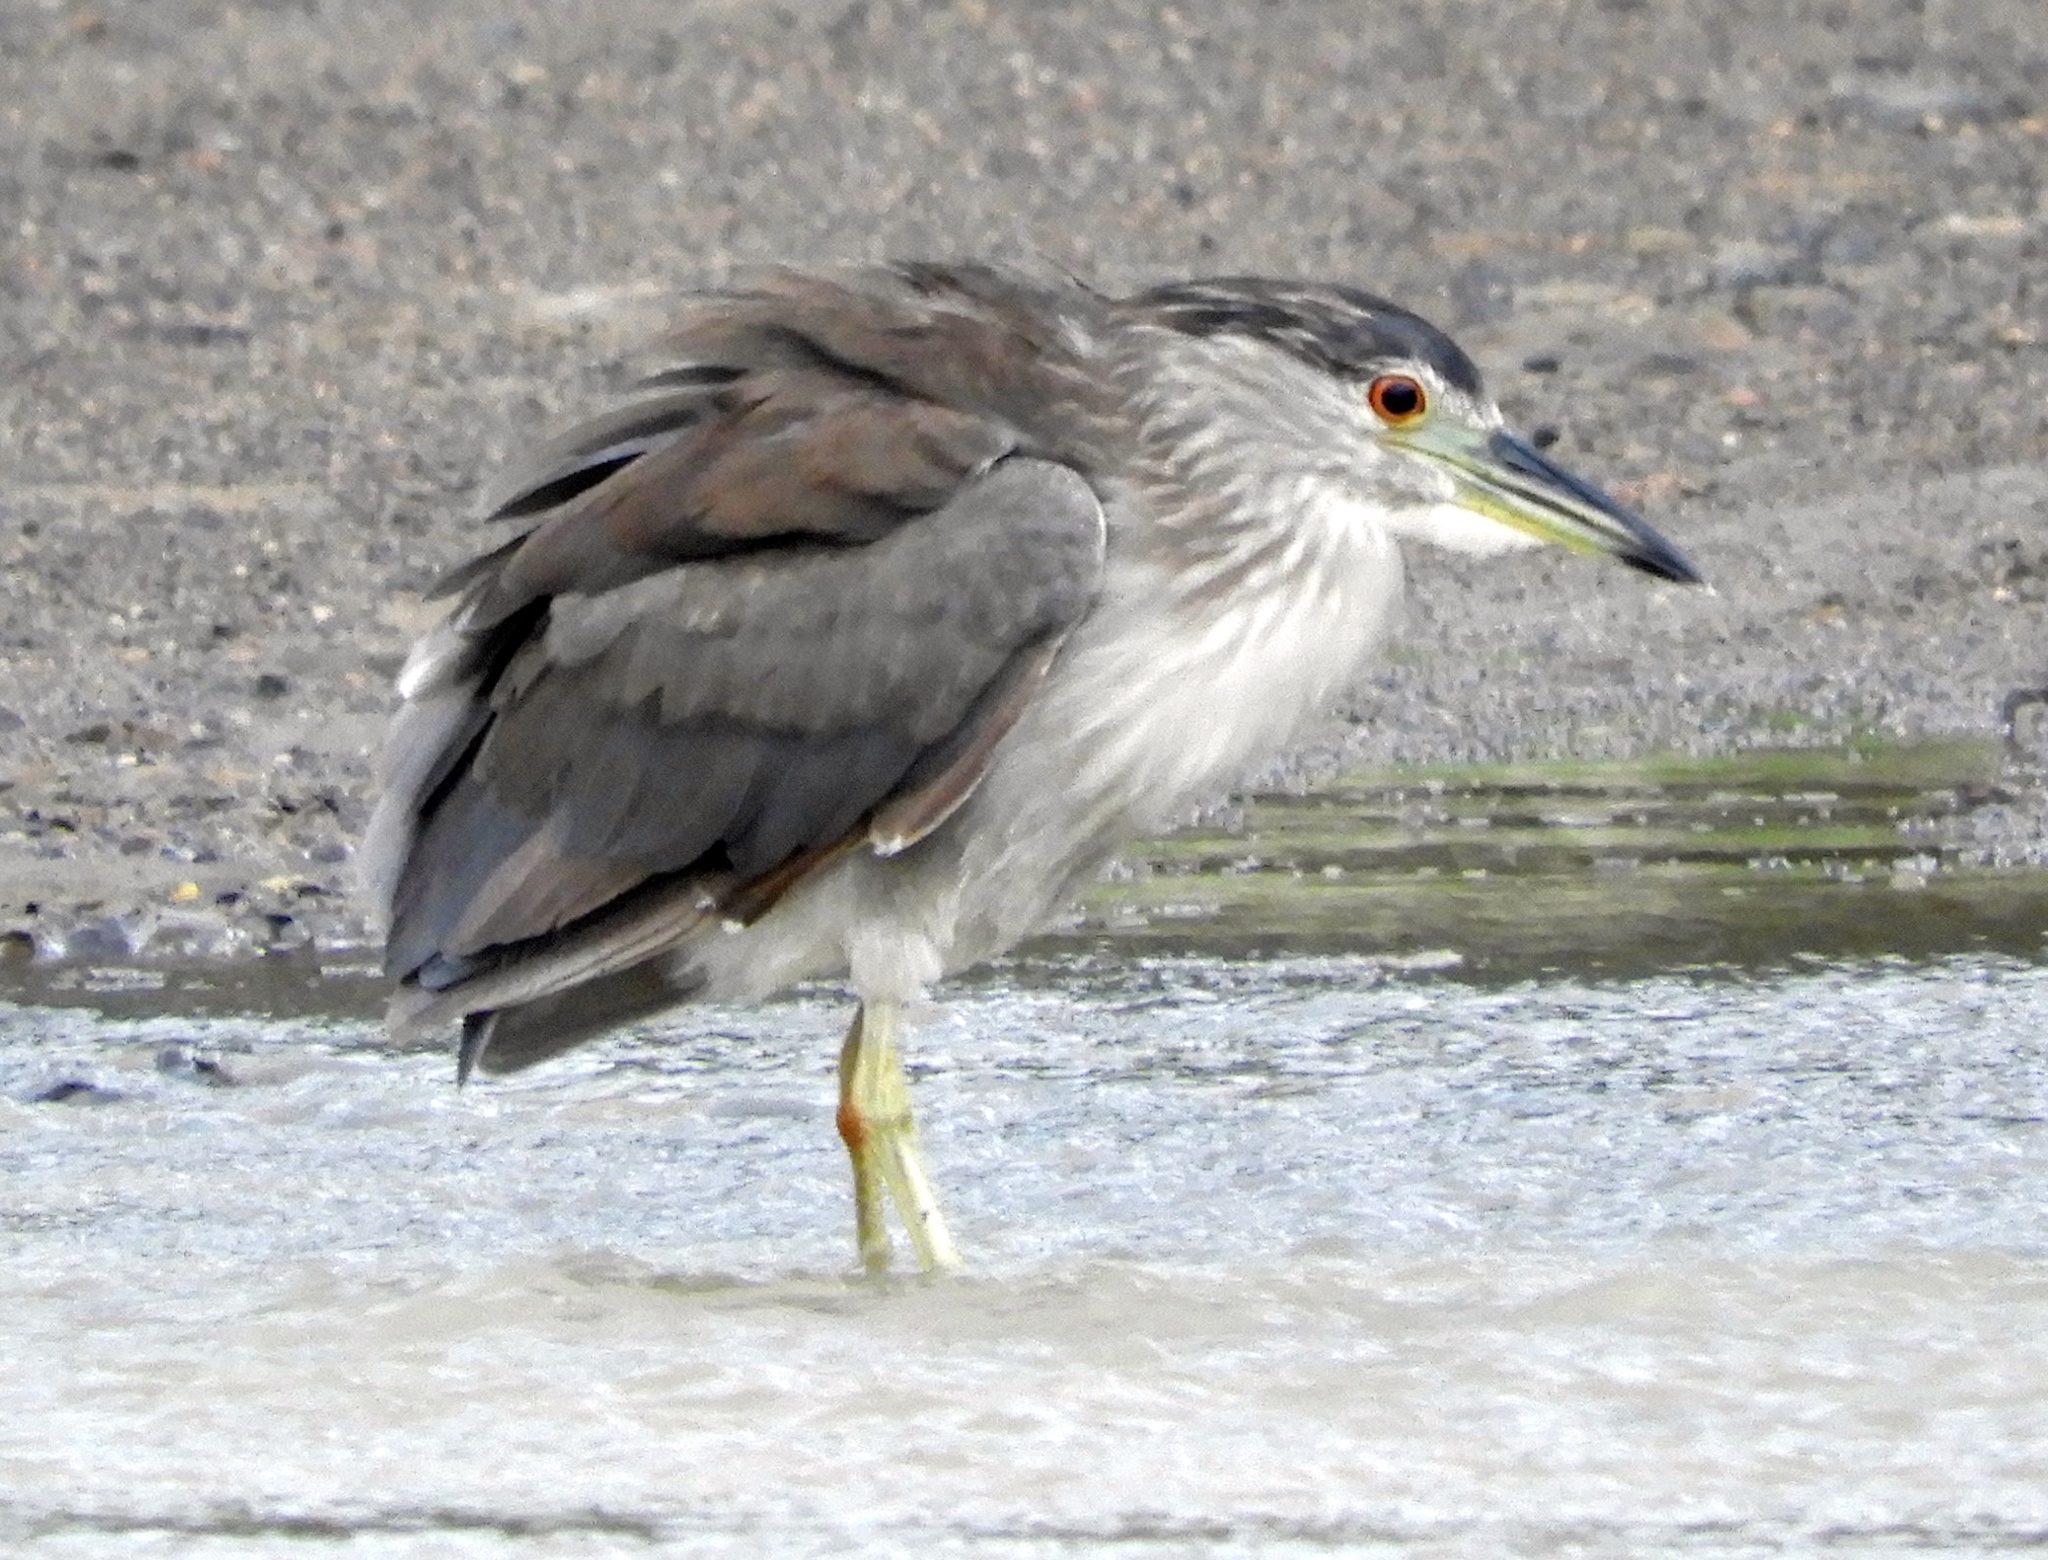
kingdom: Animalia
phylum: Chordata
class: Aves
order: Pelecaniformes
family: Ardeidae
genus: Nycticorax
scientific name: Nycticorax nycticorax
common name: Black-crowned night heron
